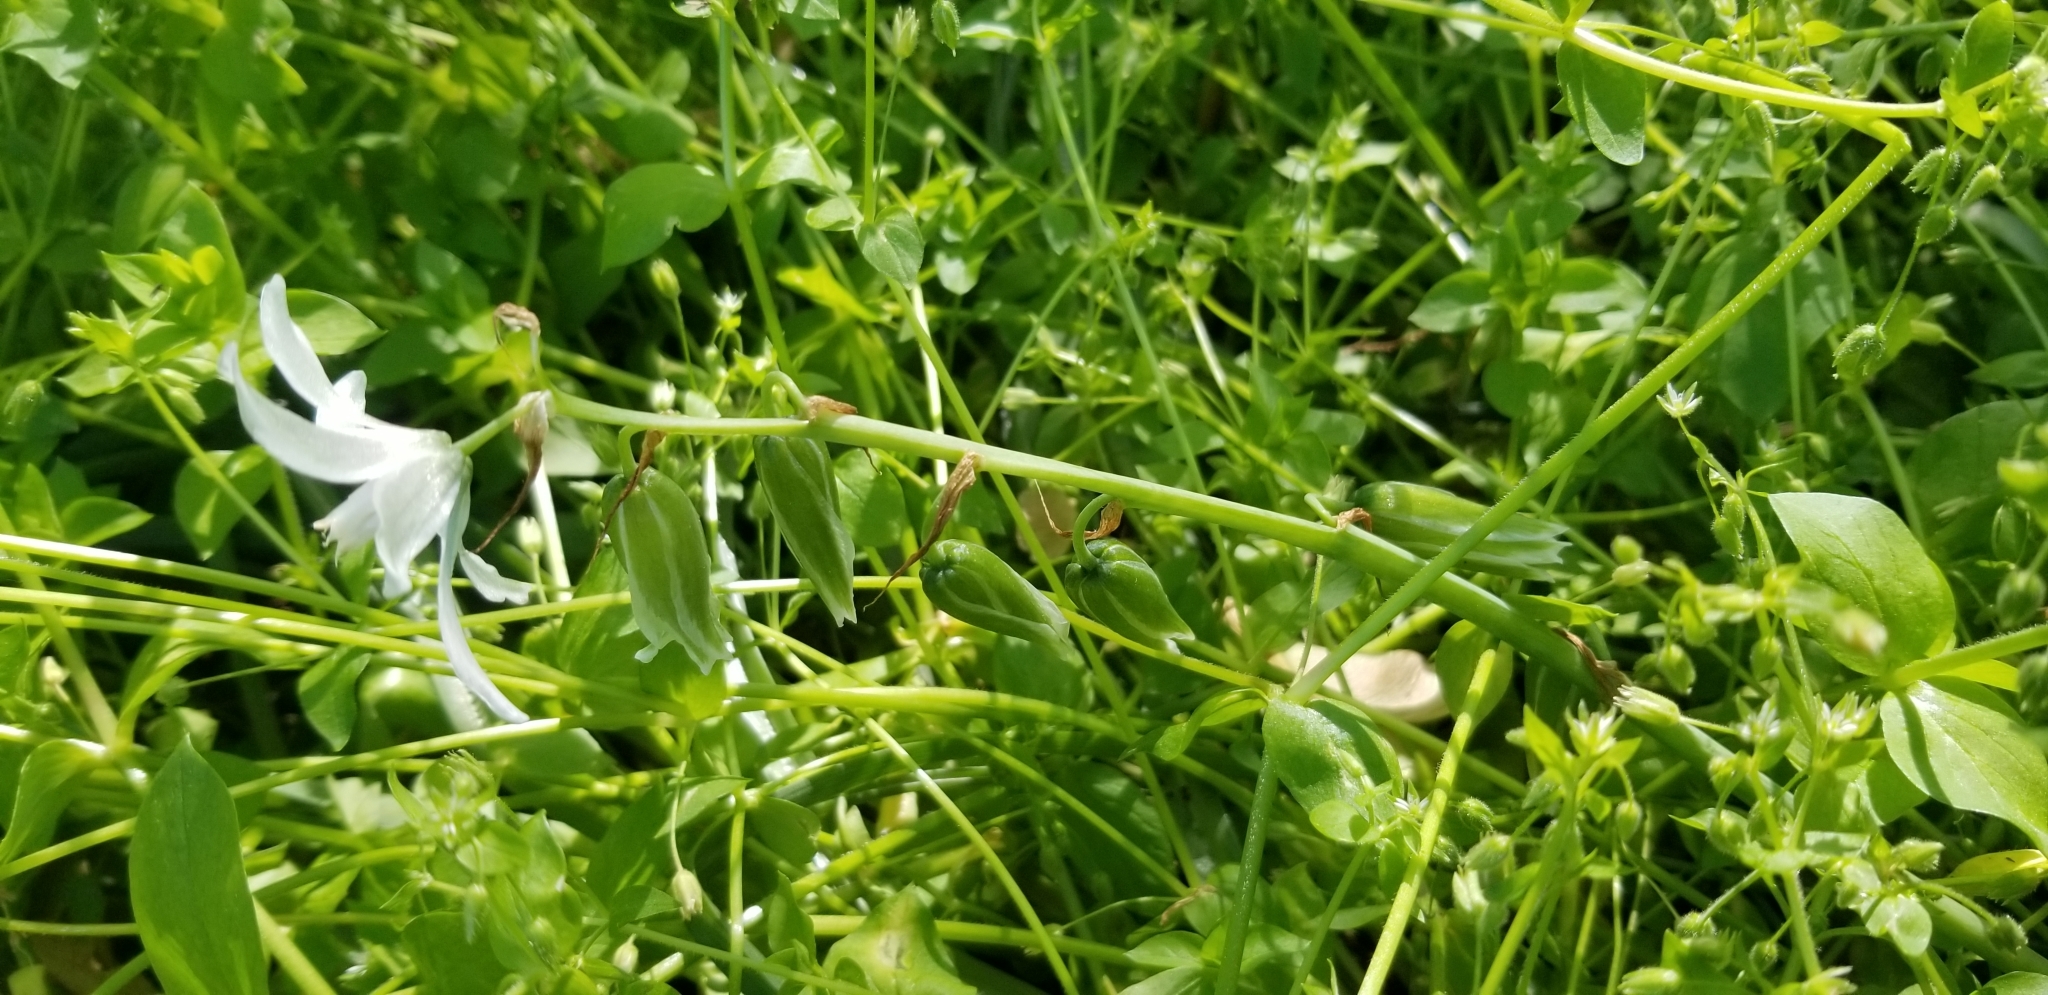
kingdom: Plantae
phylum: Tracheophyta
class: Liliopsida
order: Asparagales
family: Asparagaceae
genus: Ornithogalum
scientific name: Ornithogalum nutans
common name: Drooping star-of-bethlehem
